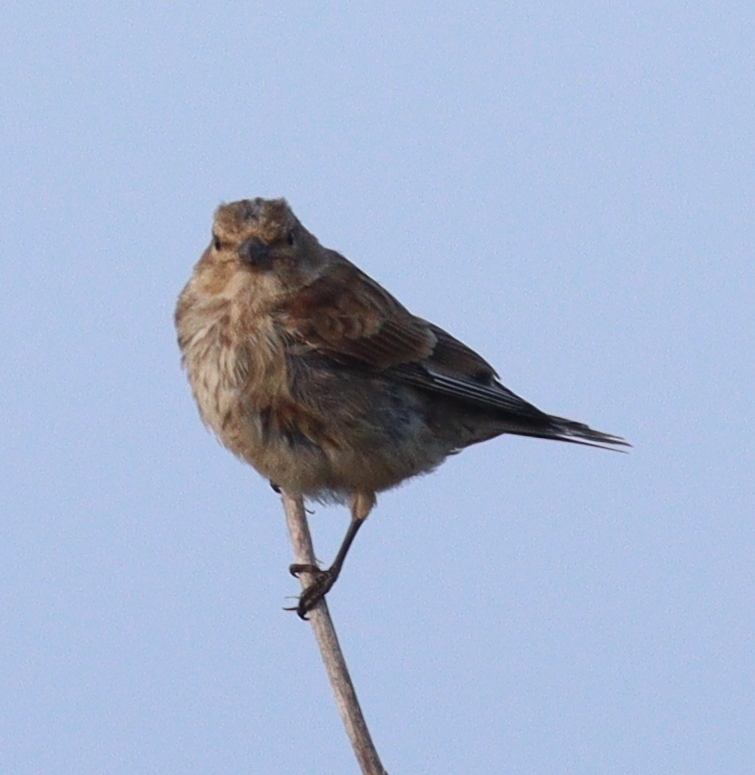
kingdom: Animalia
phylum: Chordata
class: Aves
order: Passeriformes
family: Fringillidae
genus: Linaria
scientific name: Linaria cannabina
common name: Common linnet
